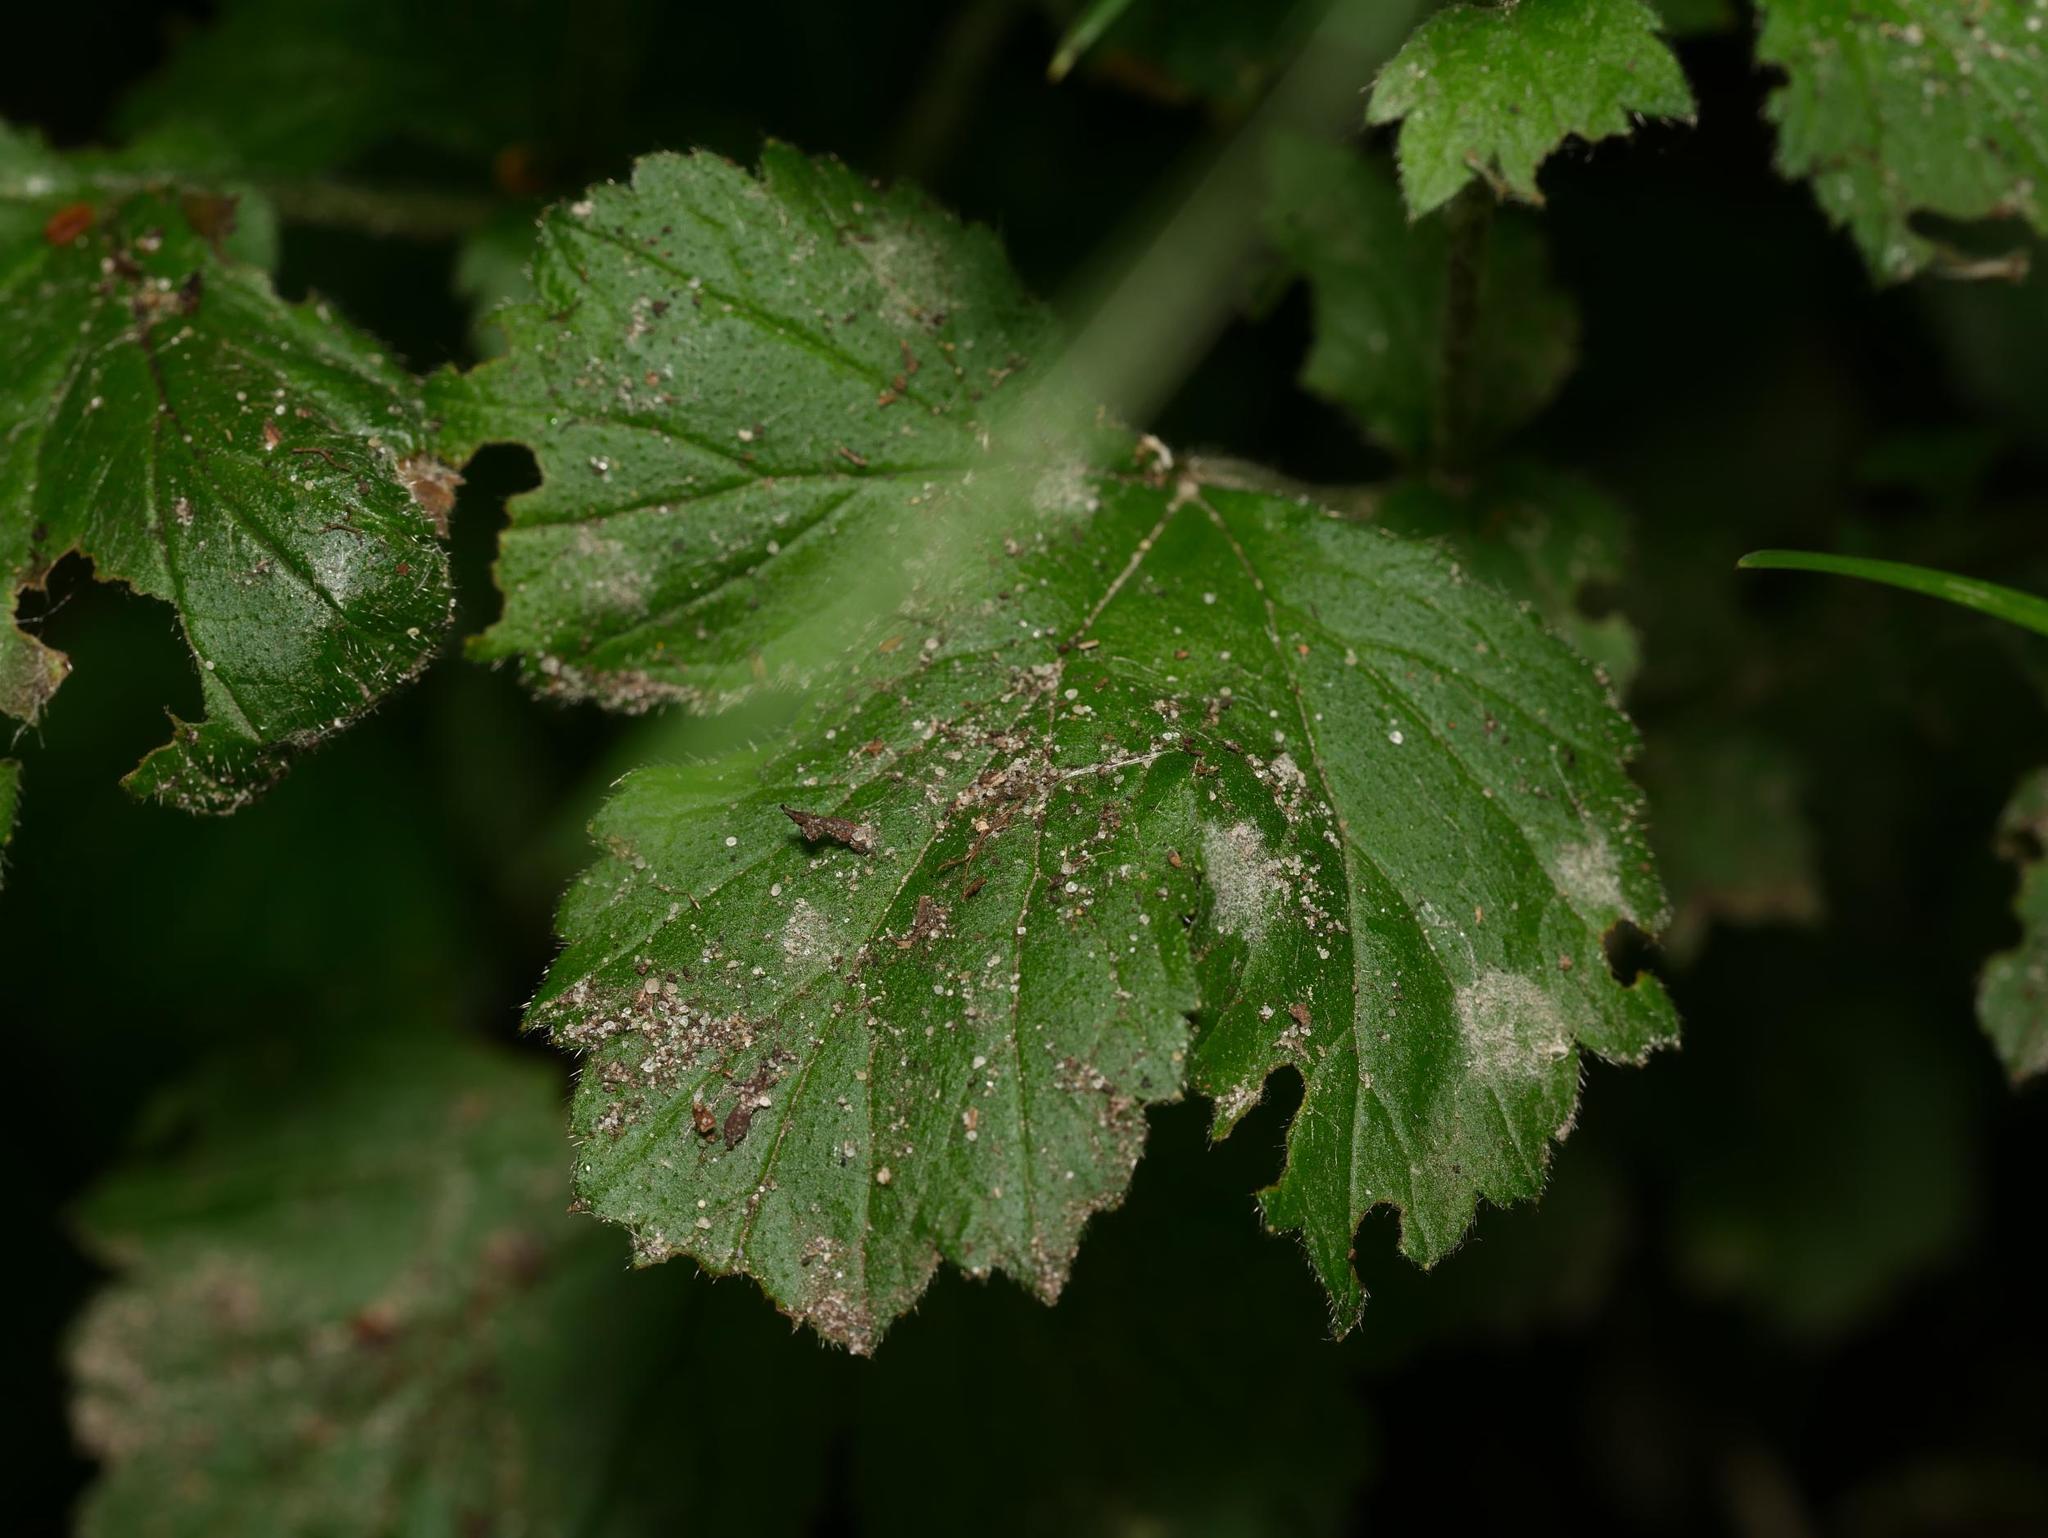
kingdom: Fungi
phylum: Ascomycota
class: Leotiomycetes
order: Helotiales
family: Erysiphaceae
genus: Podosphaera
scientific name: Podosphaera aphanis
